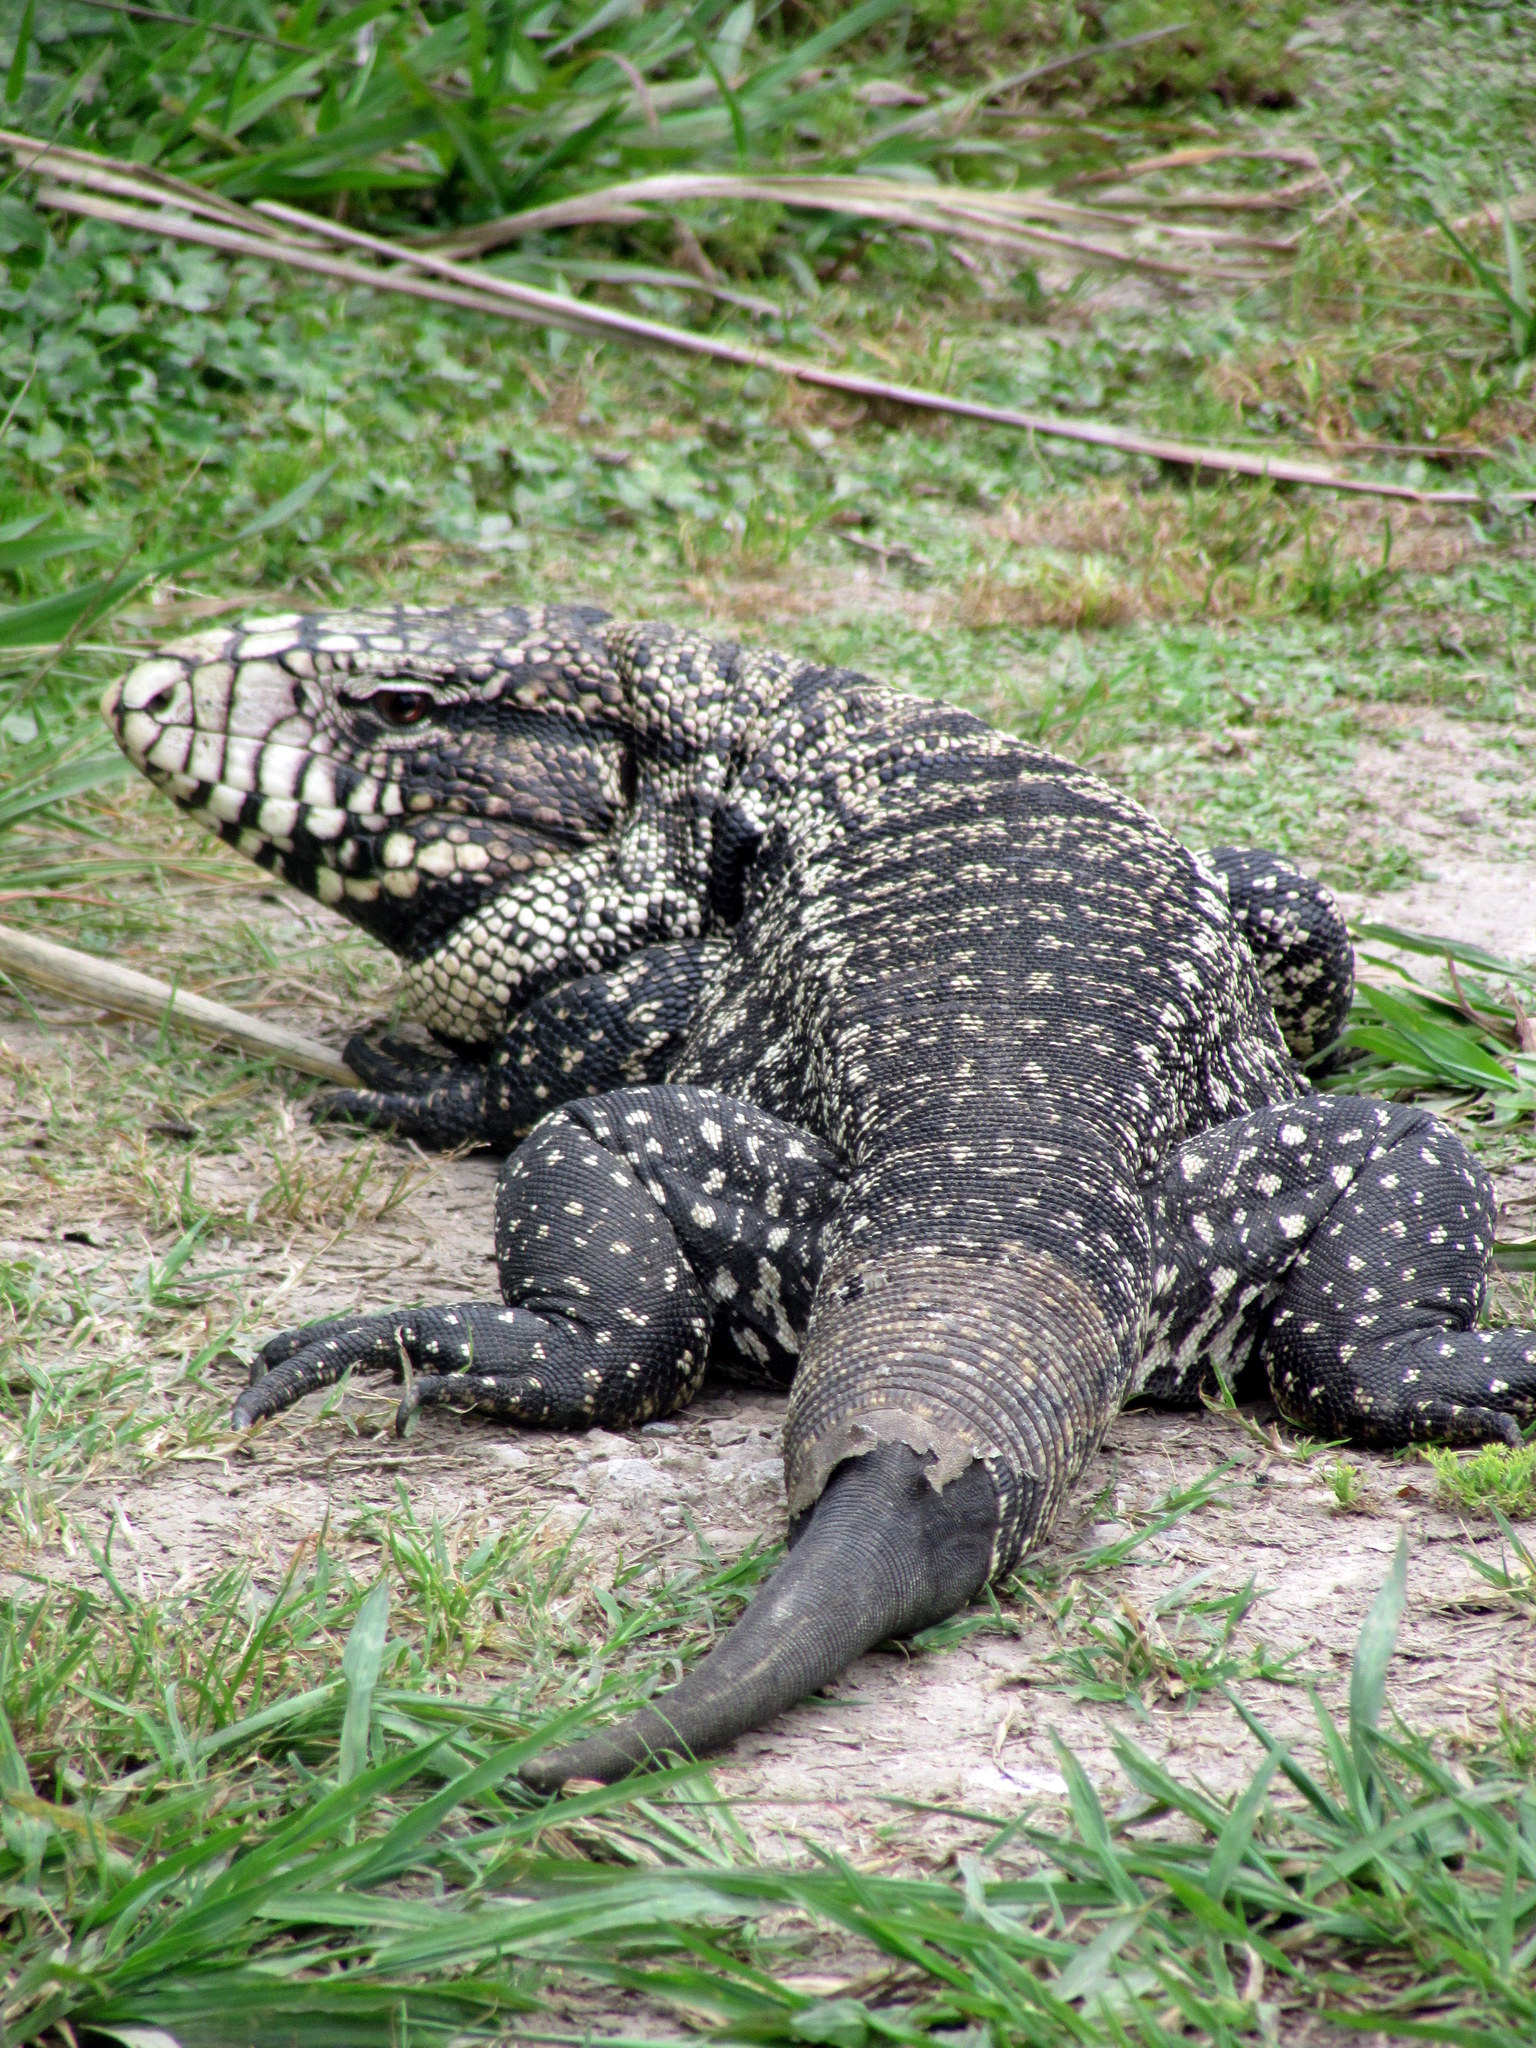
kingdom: Animalia
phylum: Chordata
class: Squamata
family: Teiidae
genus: Salvator
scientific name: Salvator merianae
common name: Argentine black and white tegu
